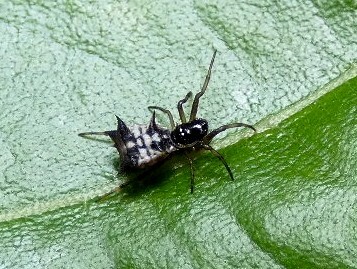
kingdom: Animalia
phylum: Arthropoda
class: Arachnida
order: Araneae
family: Araneidae
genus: Micrathena
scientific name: Micrathena picta
